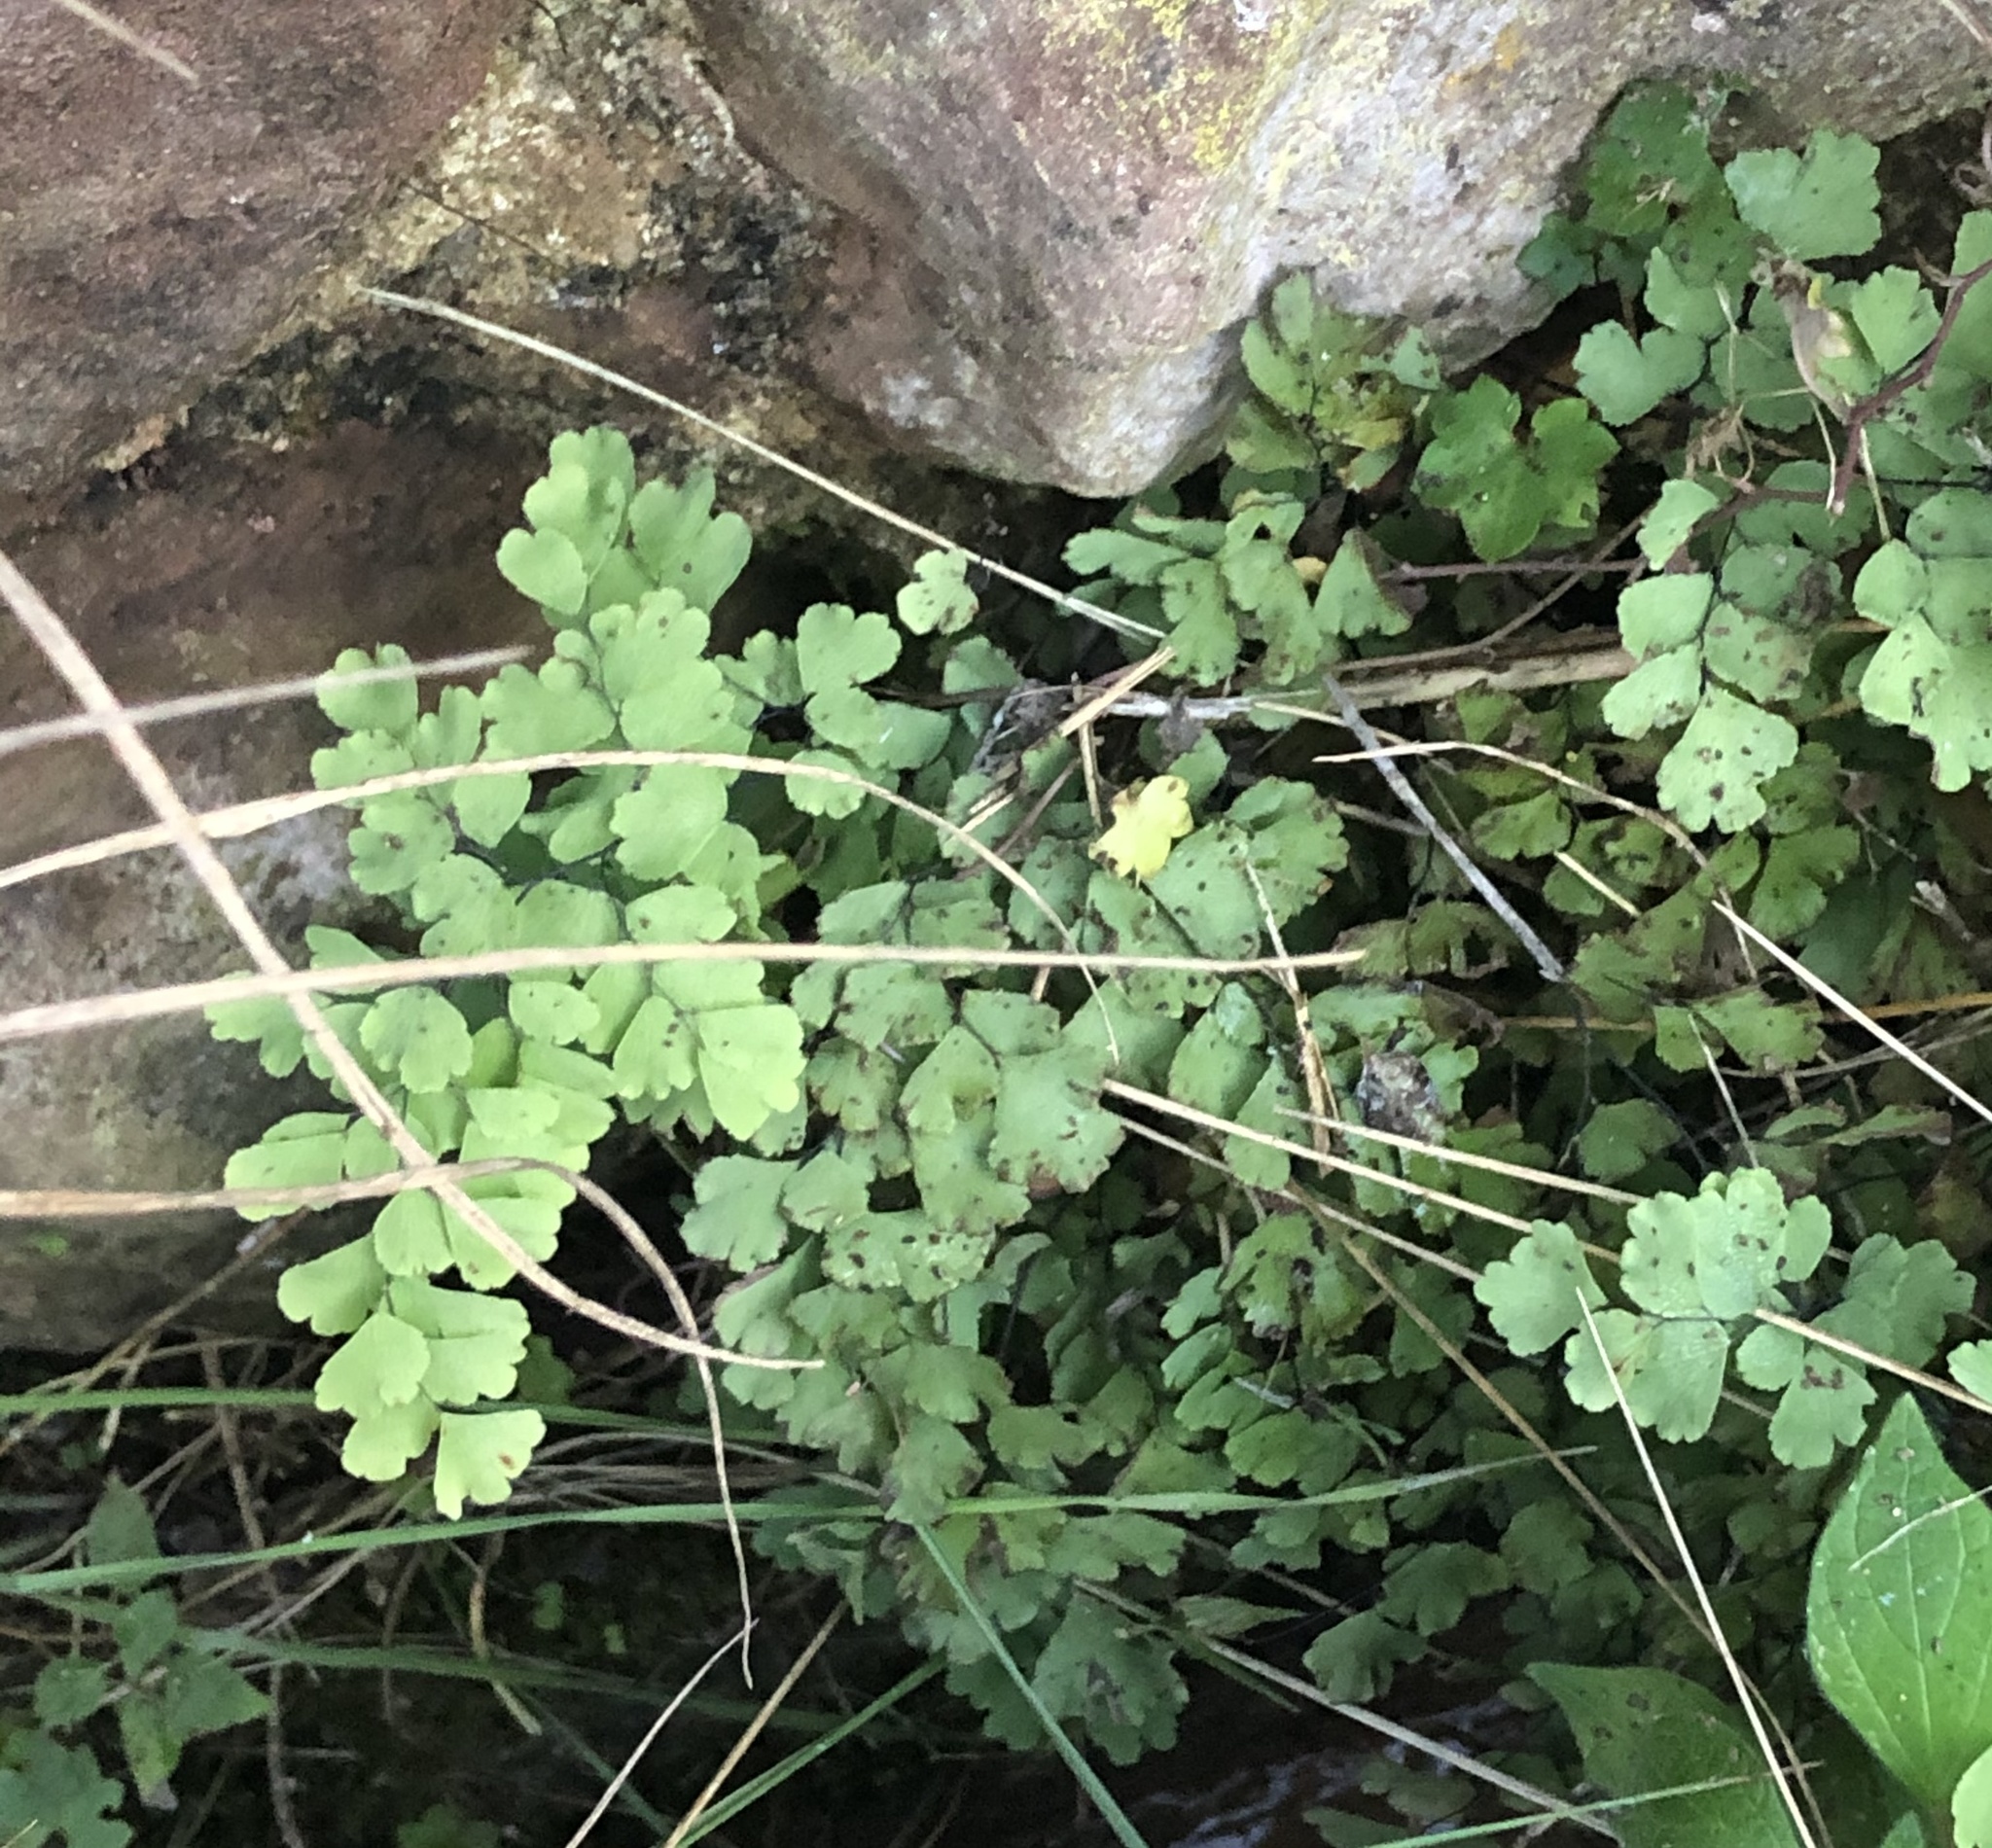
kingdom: Plantae
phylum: Tracheophyta
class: Polypodiopsida
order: Polypodiales
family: Pteridaceae
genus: Adiantum
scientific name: Adiantum capillus-veneris
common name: Maidenhair fern
